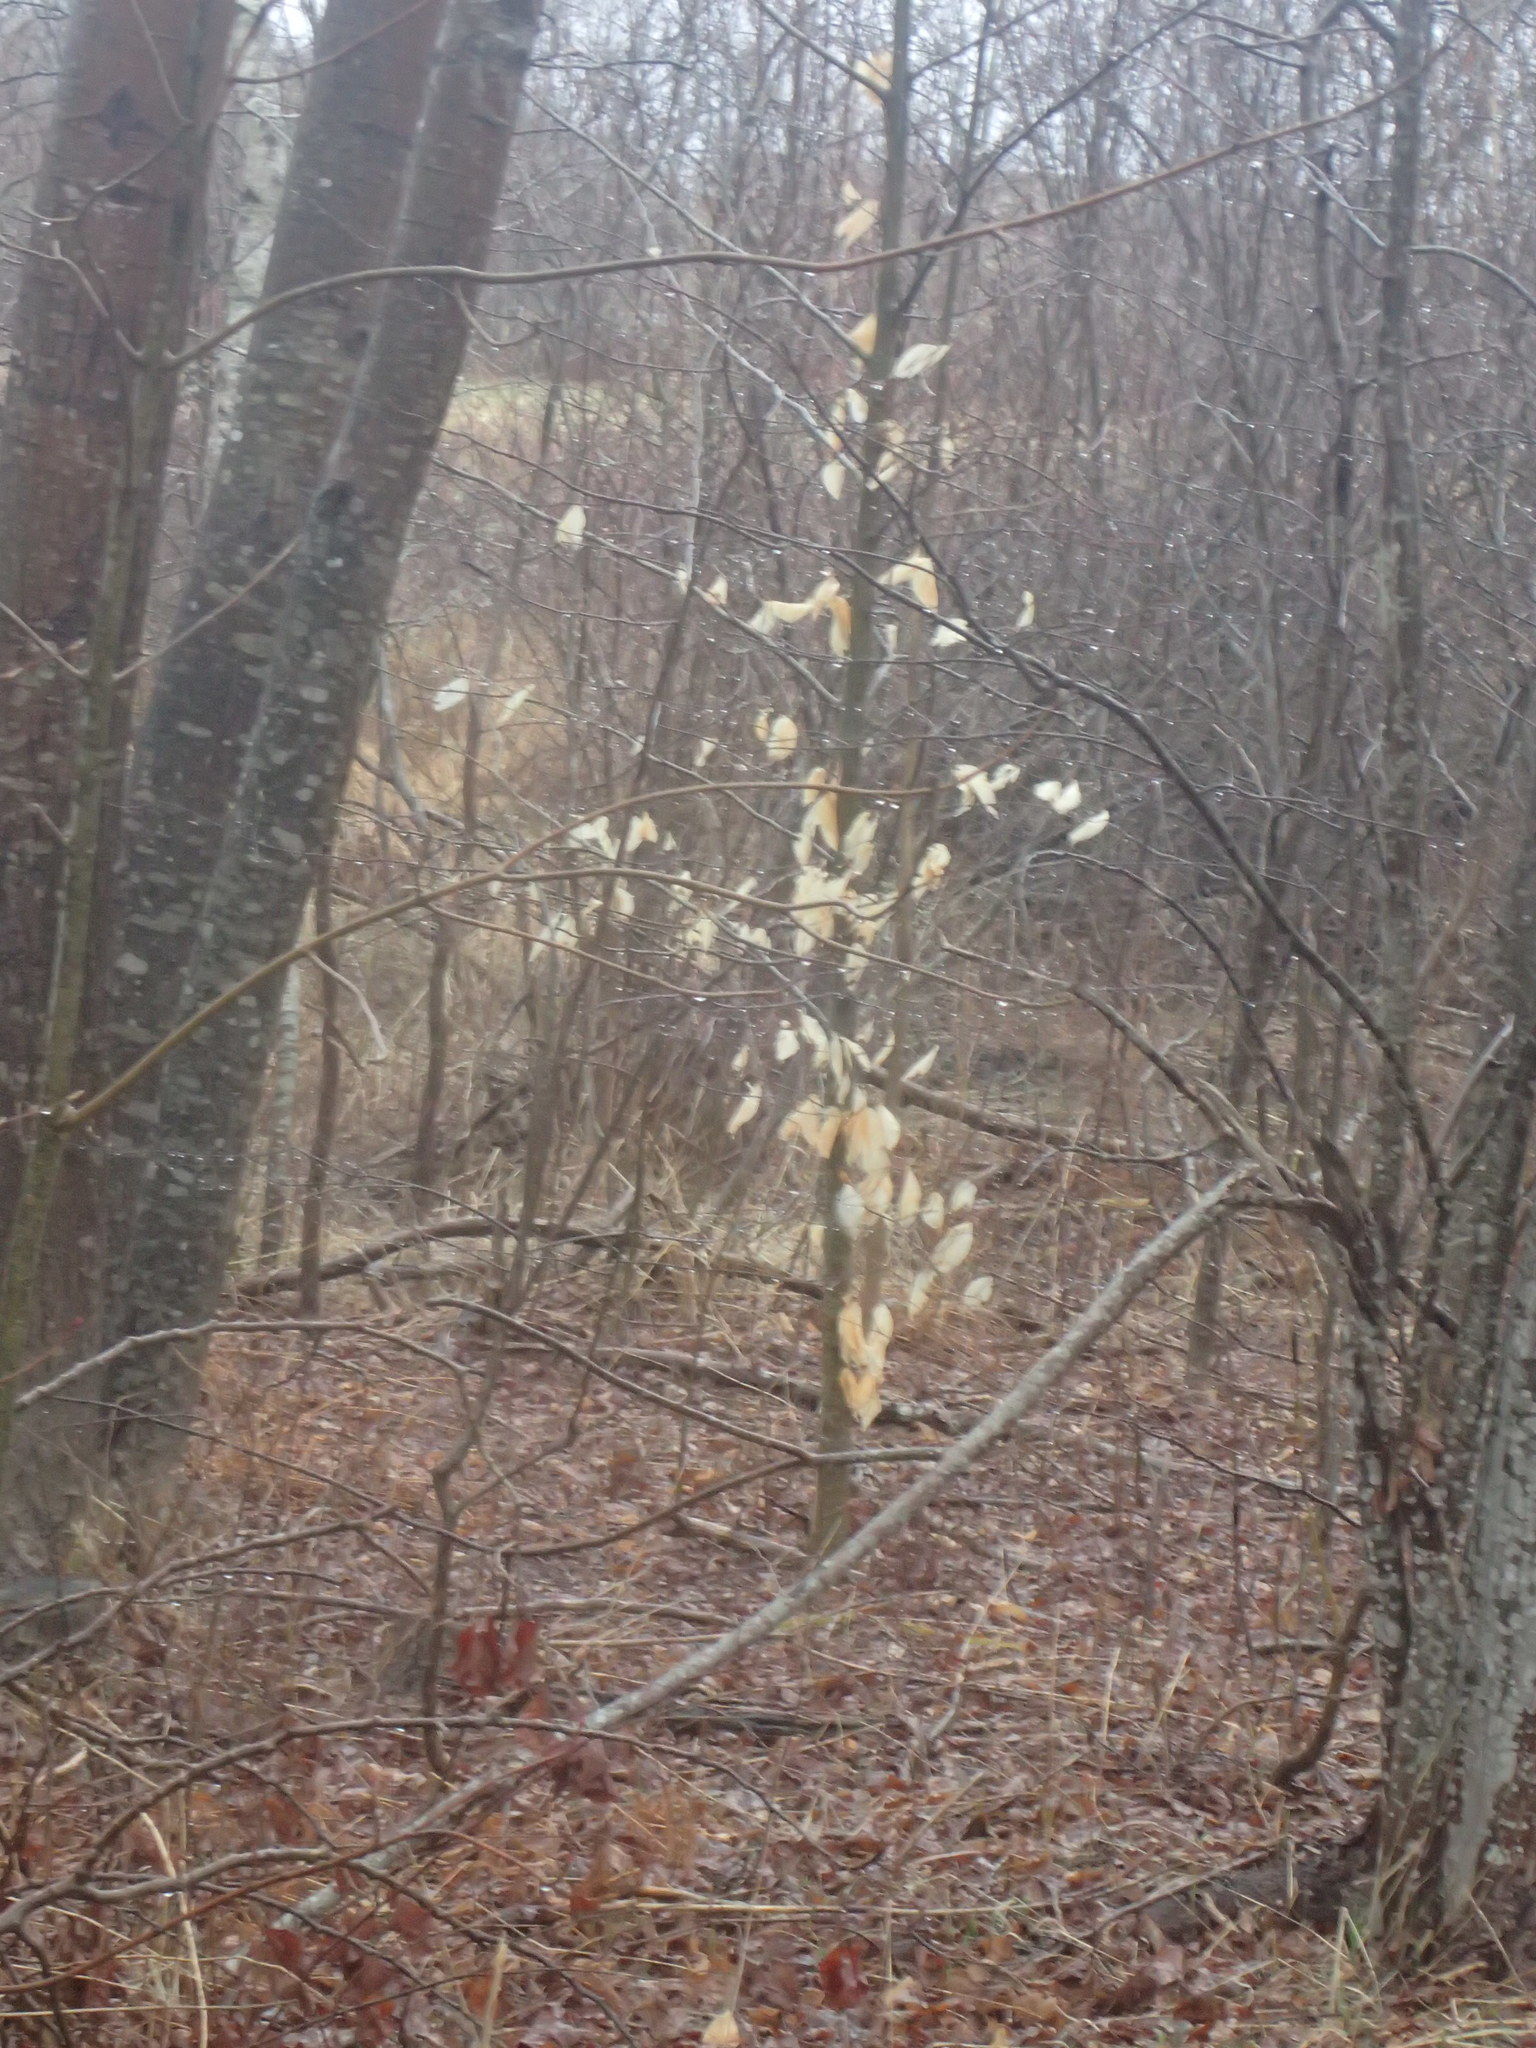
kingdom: Plantae
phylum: Tracheophyta
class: Magnoliopsida
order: Fagales
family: Fagaceae
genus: Fagus
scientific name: Fagus grandifolia
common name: American beech
